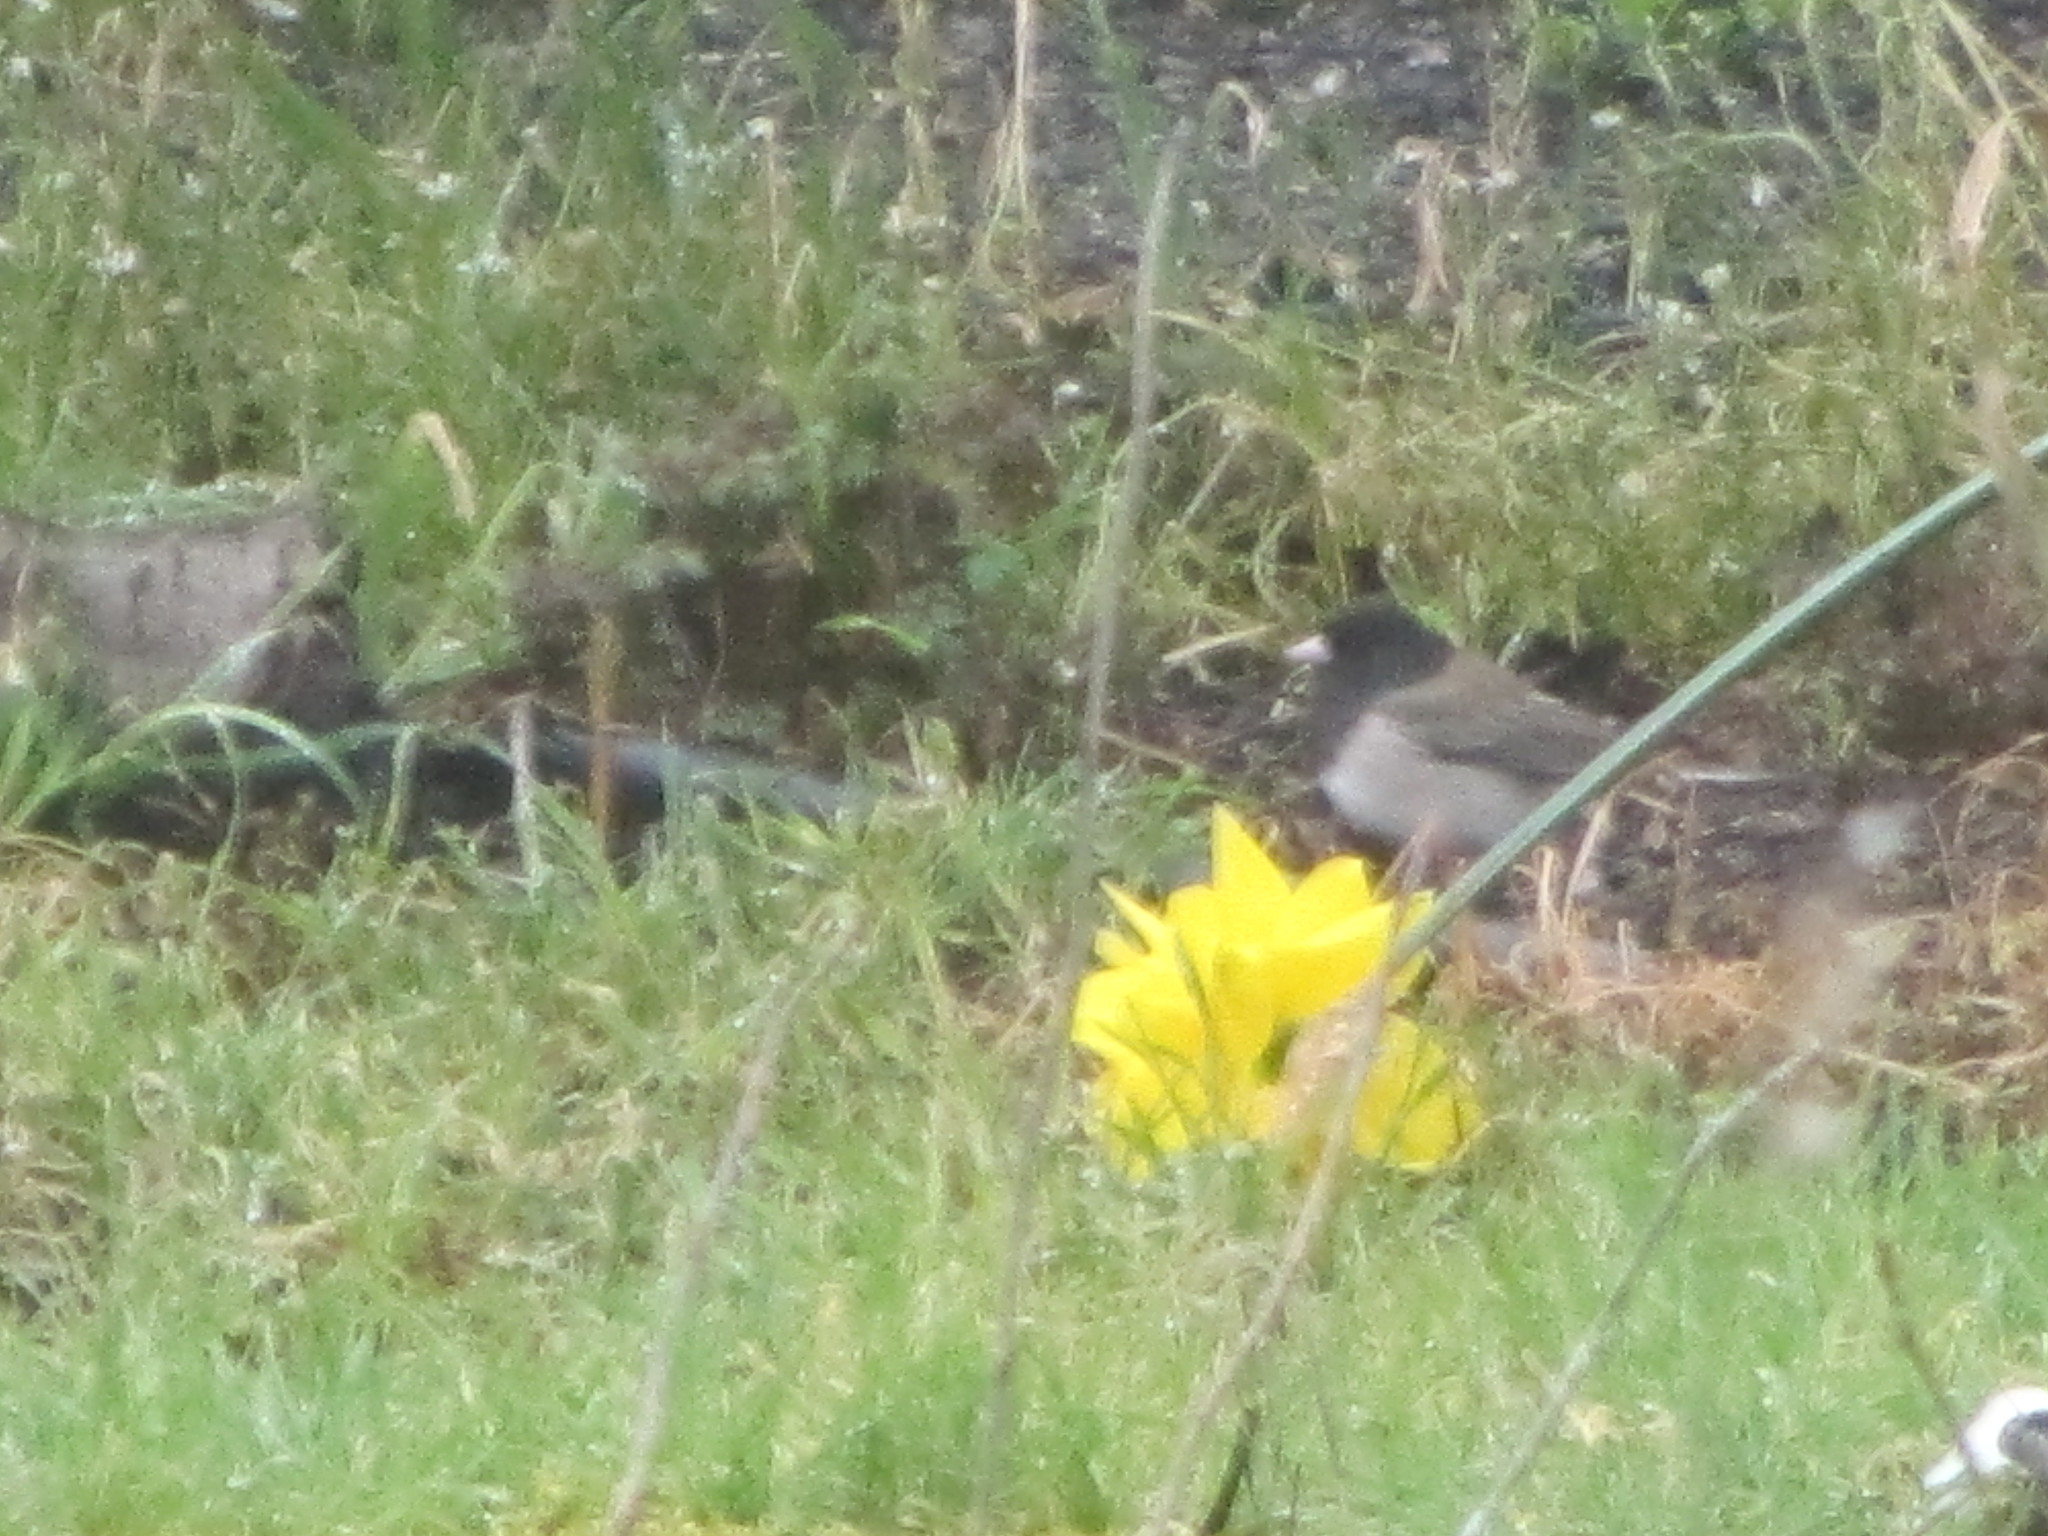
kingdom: Animalia
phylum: Chordata
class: Aves
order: Passeriformes
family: Passerellidae
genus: Junco
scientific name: Junco hyemalis
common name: Dark-eyed junco
